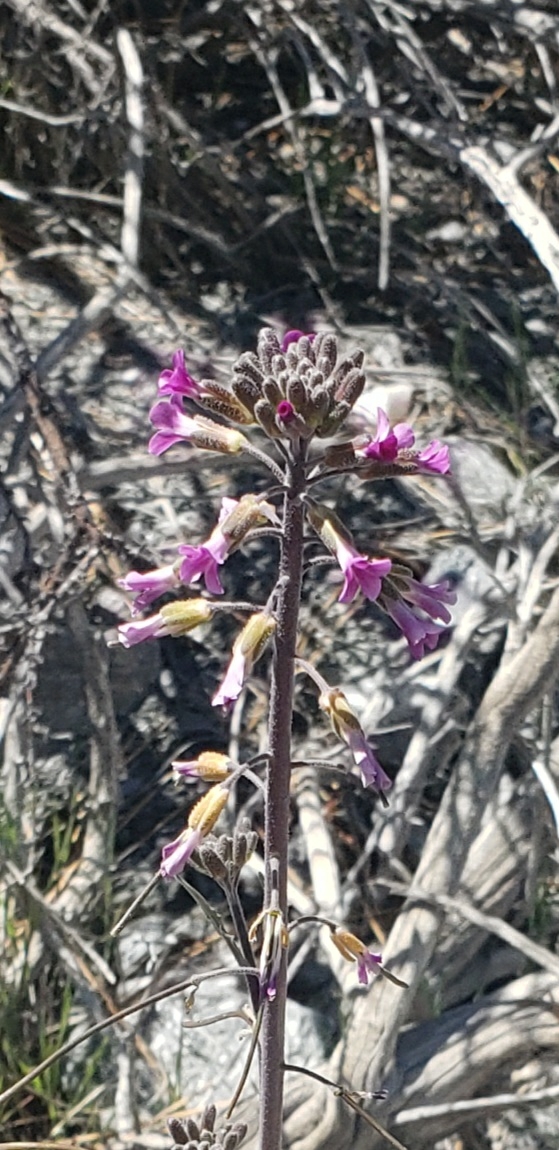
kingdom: Plantae
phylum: Tracheophyta
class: Magnoliopsida
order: Brassicales
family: Brassicaceae
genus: Boechera
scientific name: Boechera californica
